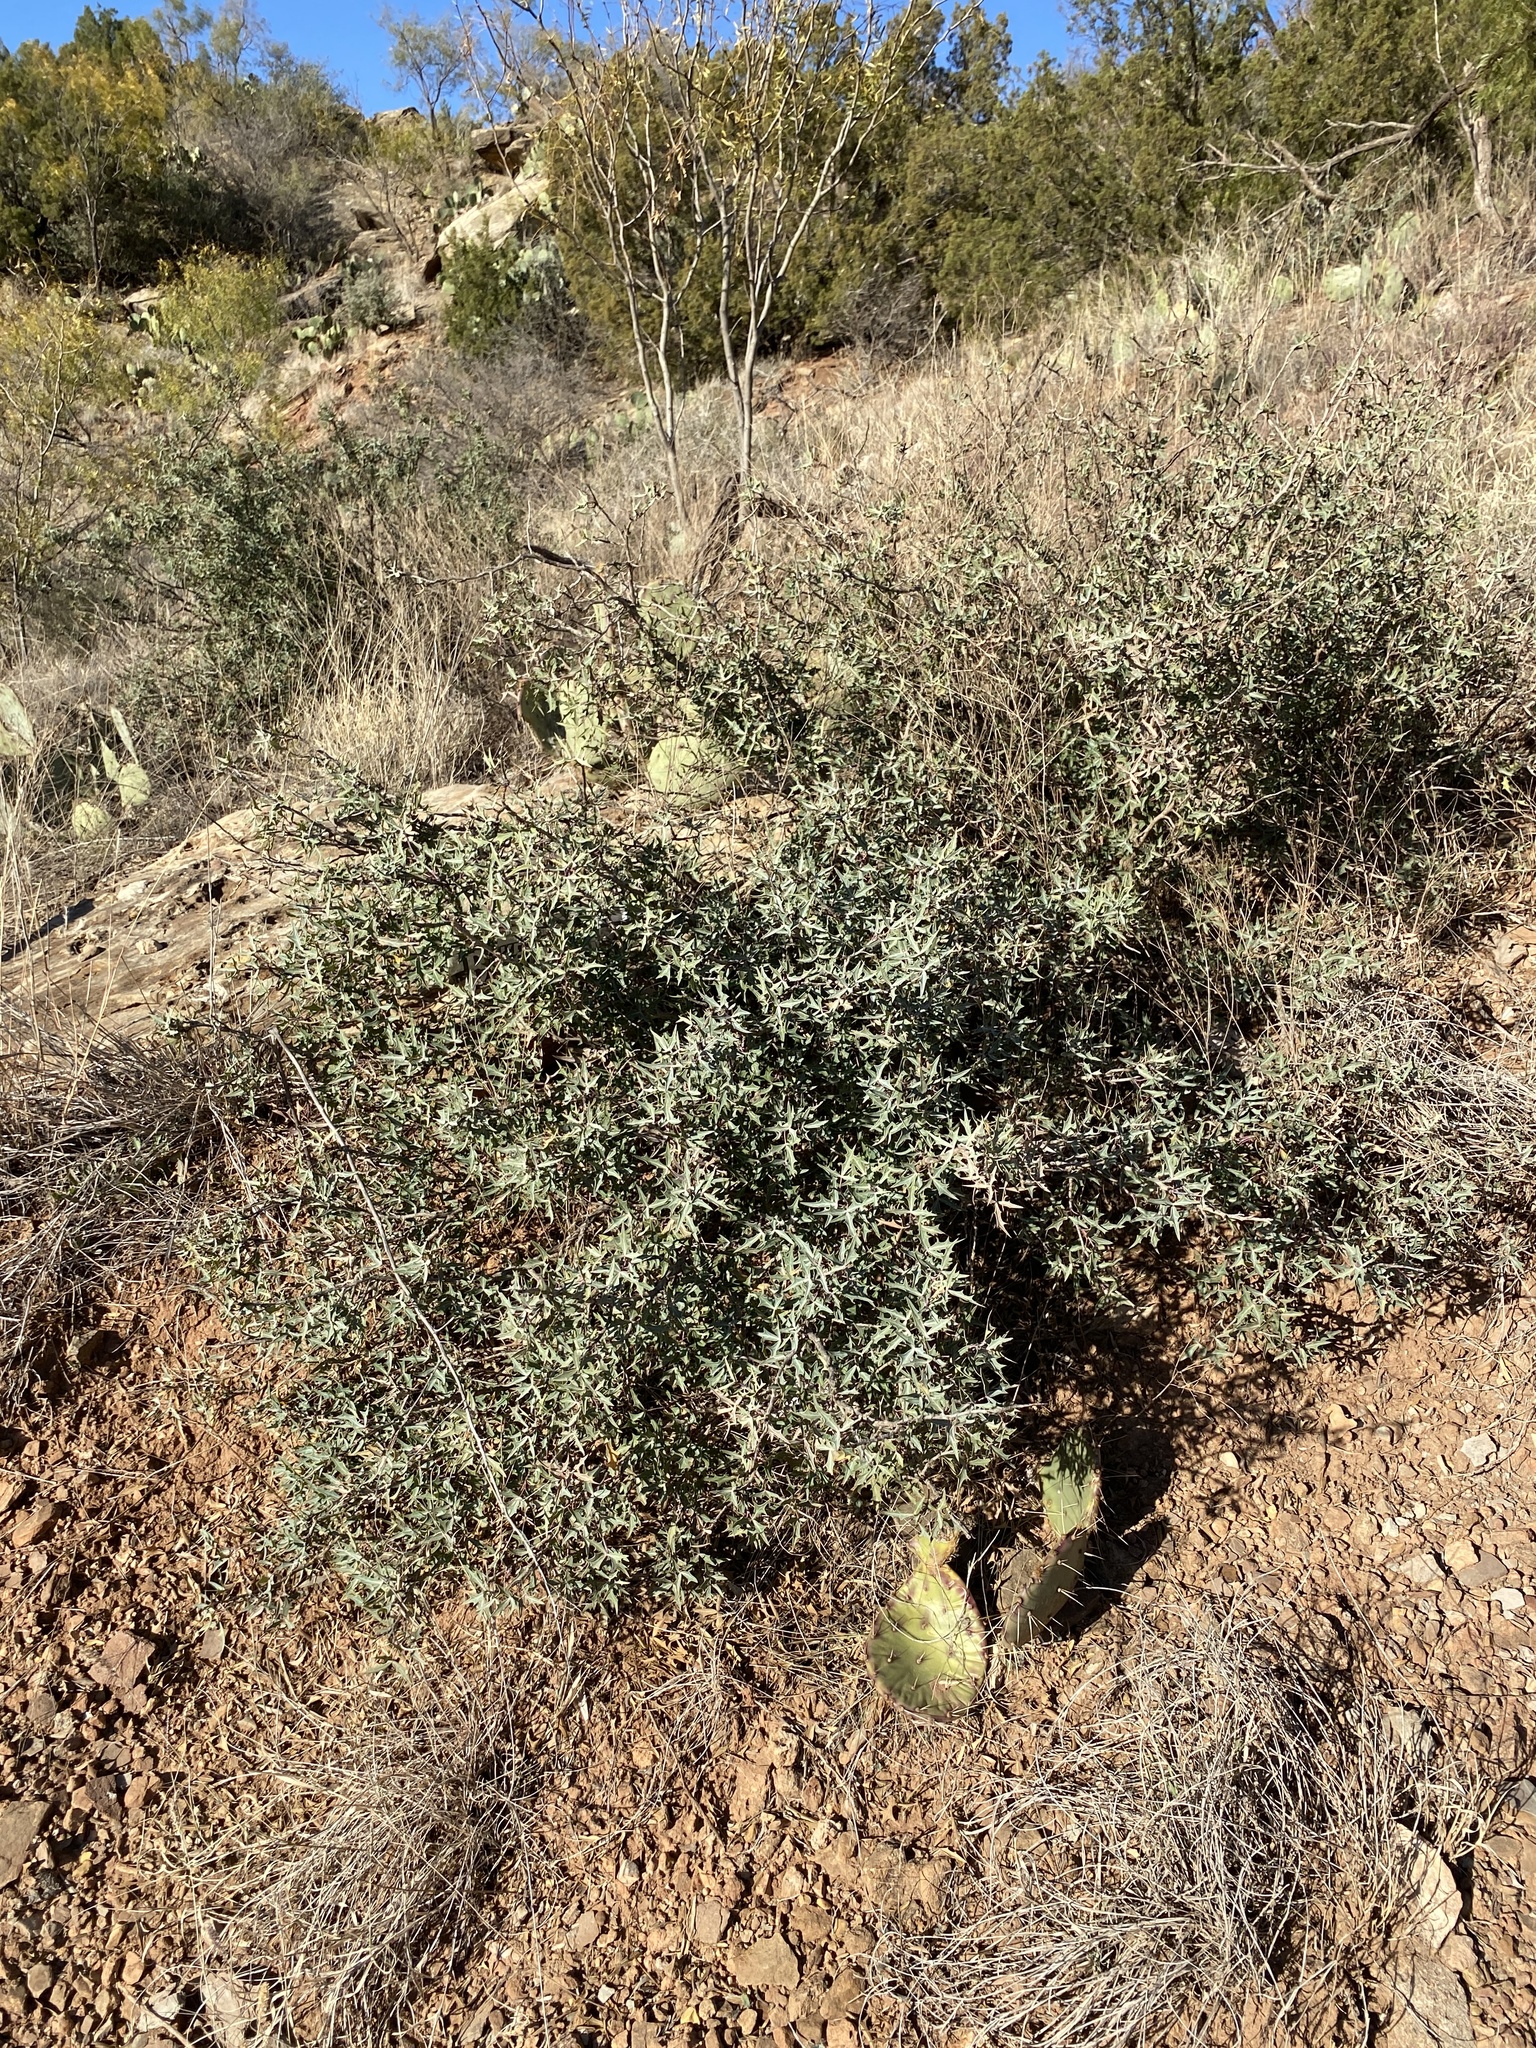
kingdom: Plantae
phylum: Tracheophyta
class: Magnoliopsida
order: Ranunculales
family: Berberidaceae
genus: Alloberberis
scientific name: Alloberberis trifoliolata
